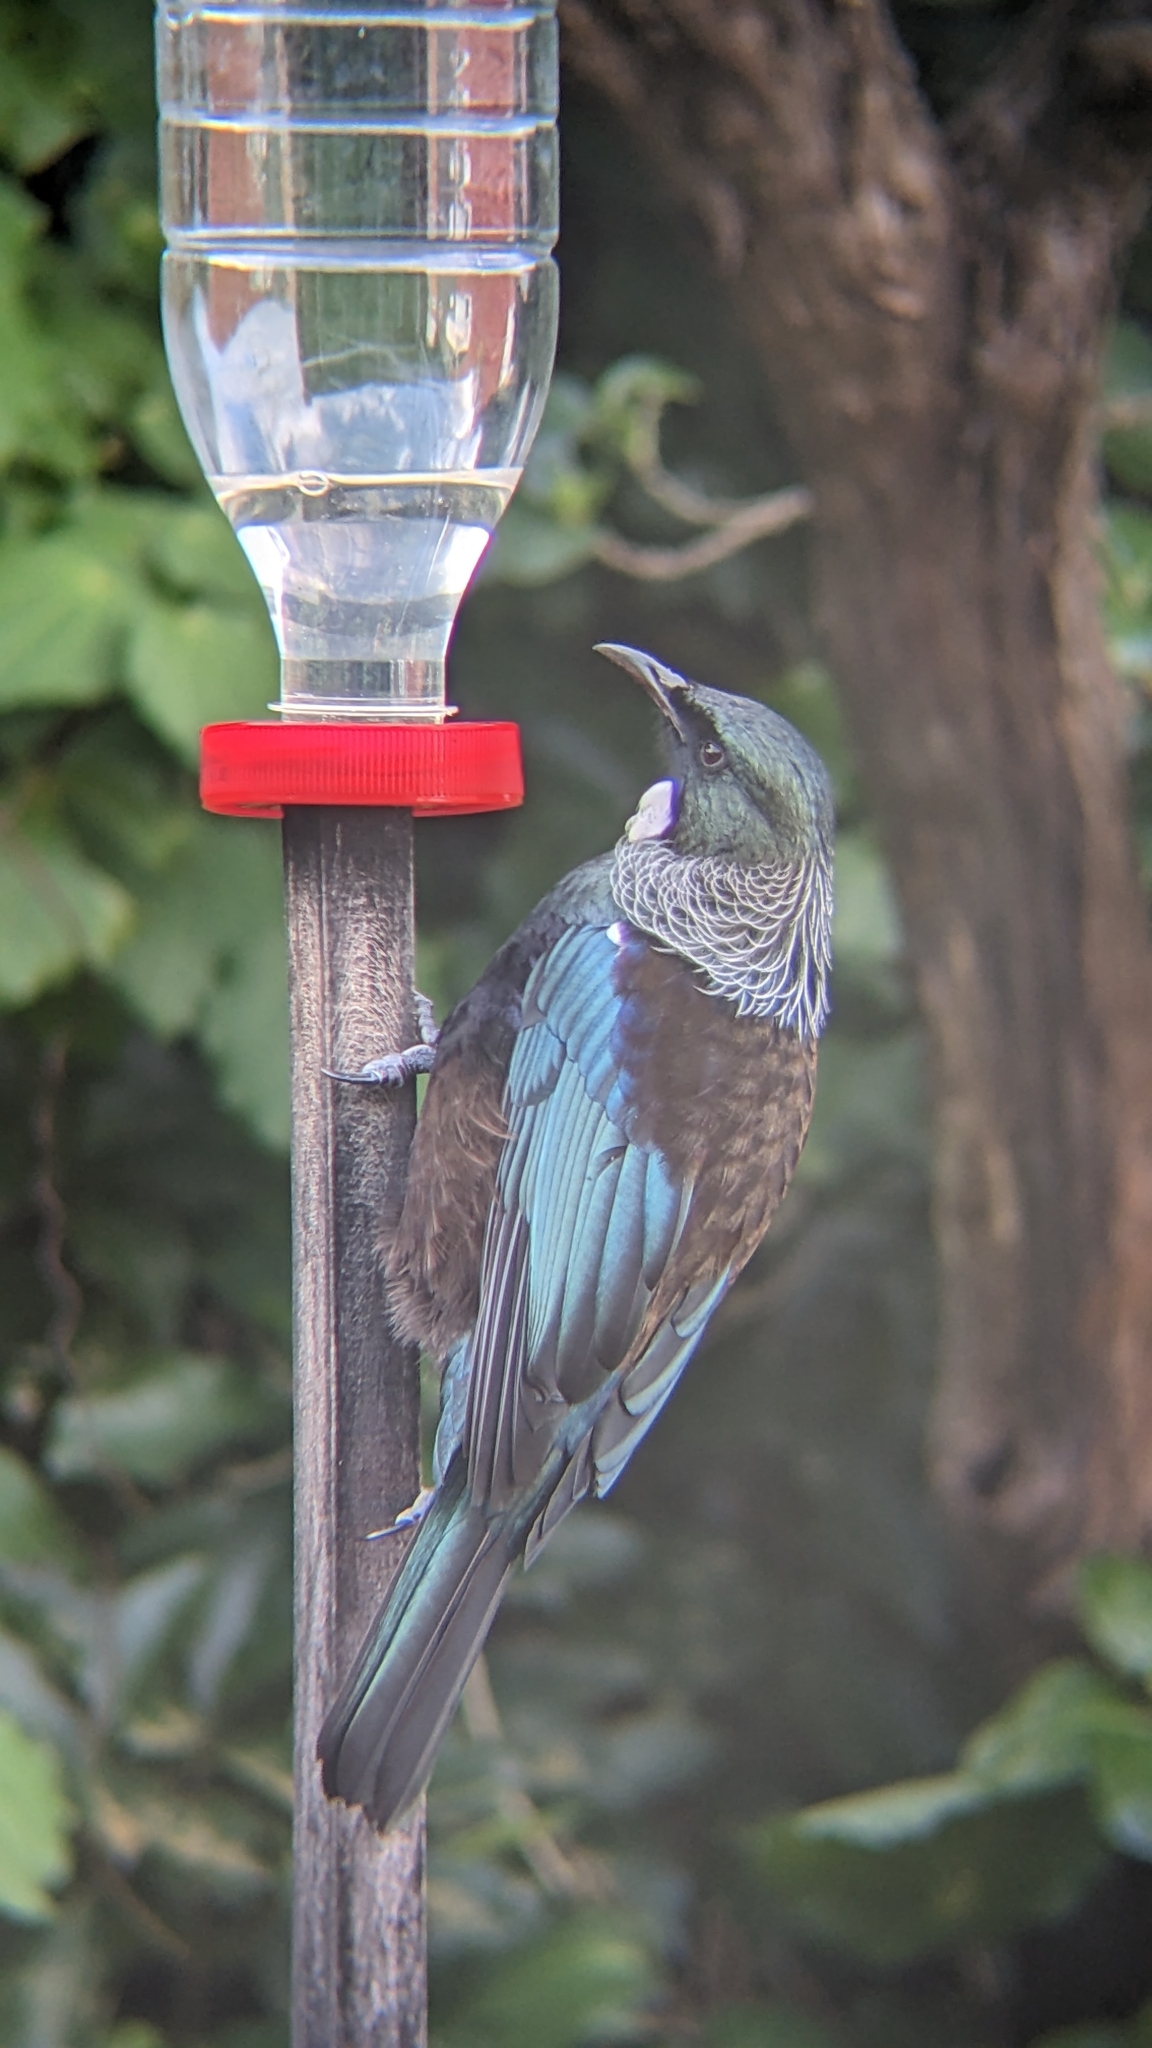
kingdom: Animalia
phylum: Chordata
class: Aves
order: Passeriformes
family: Meliphagidae
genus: Prosthemadera
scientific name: Prosthemadera novaeseelandiae
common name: Tui
